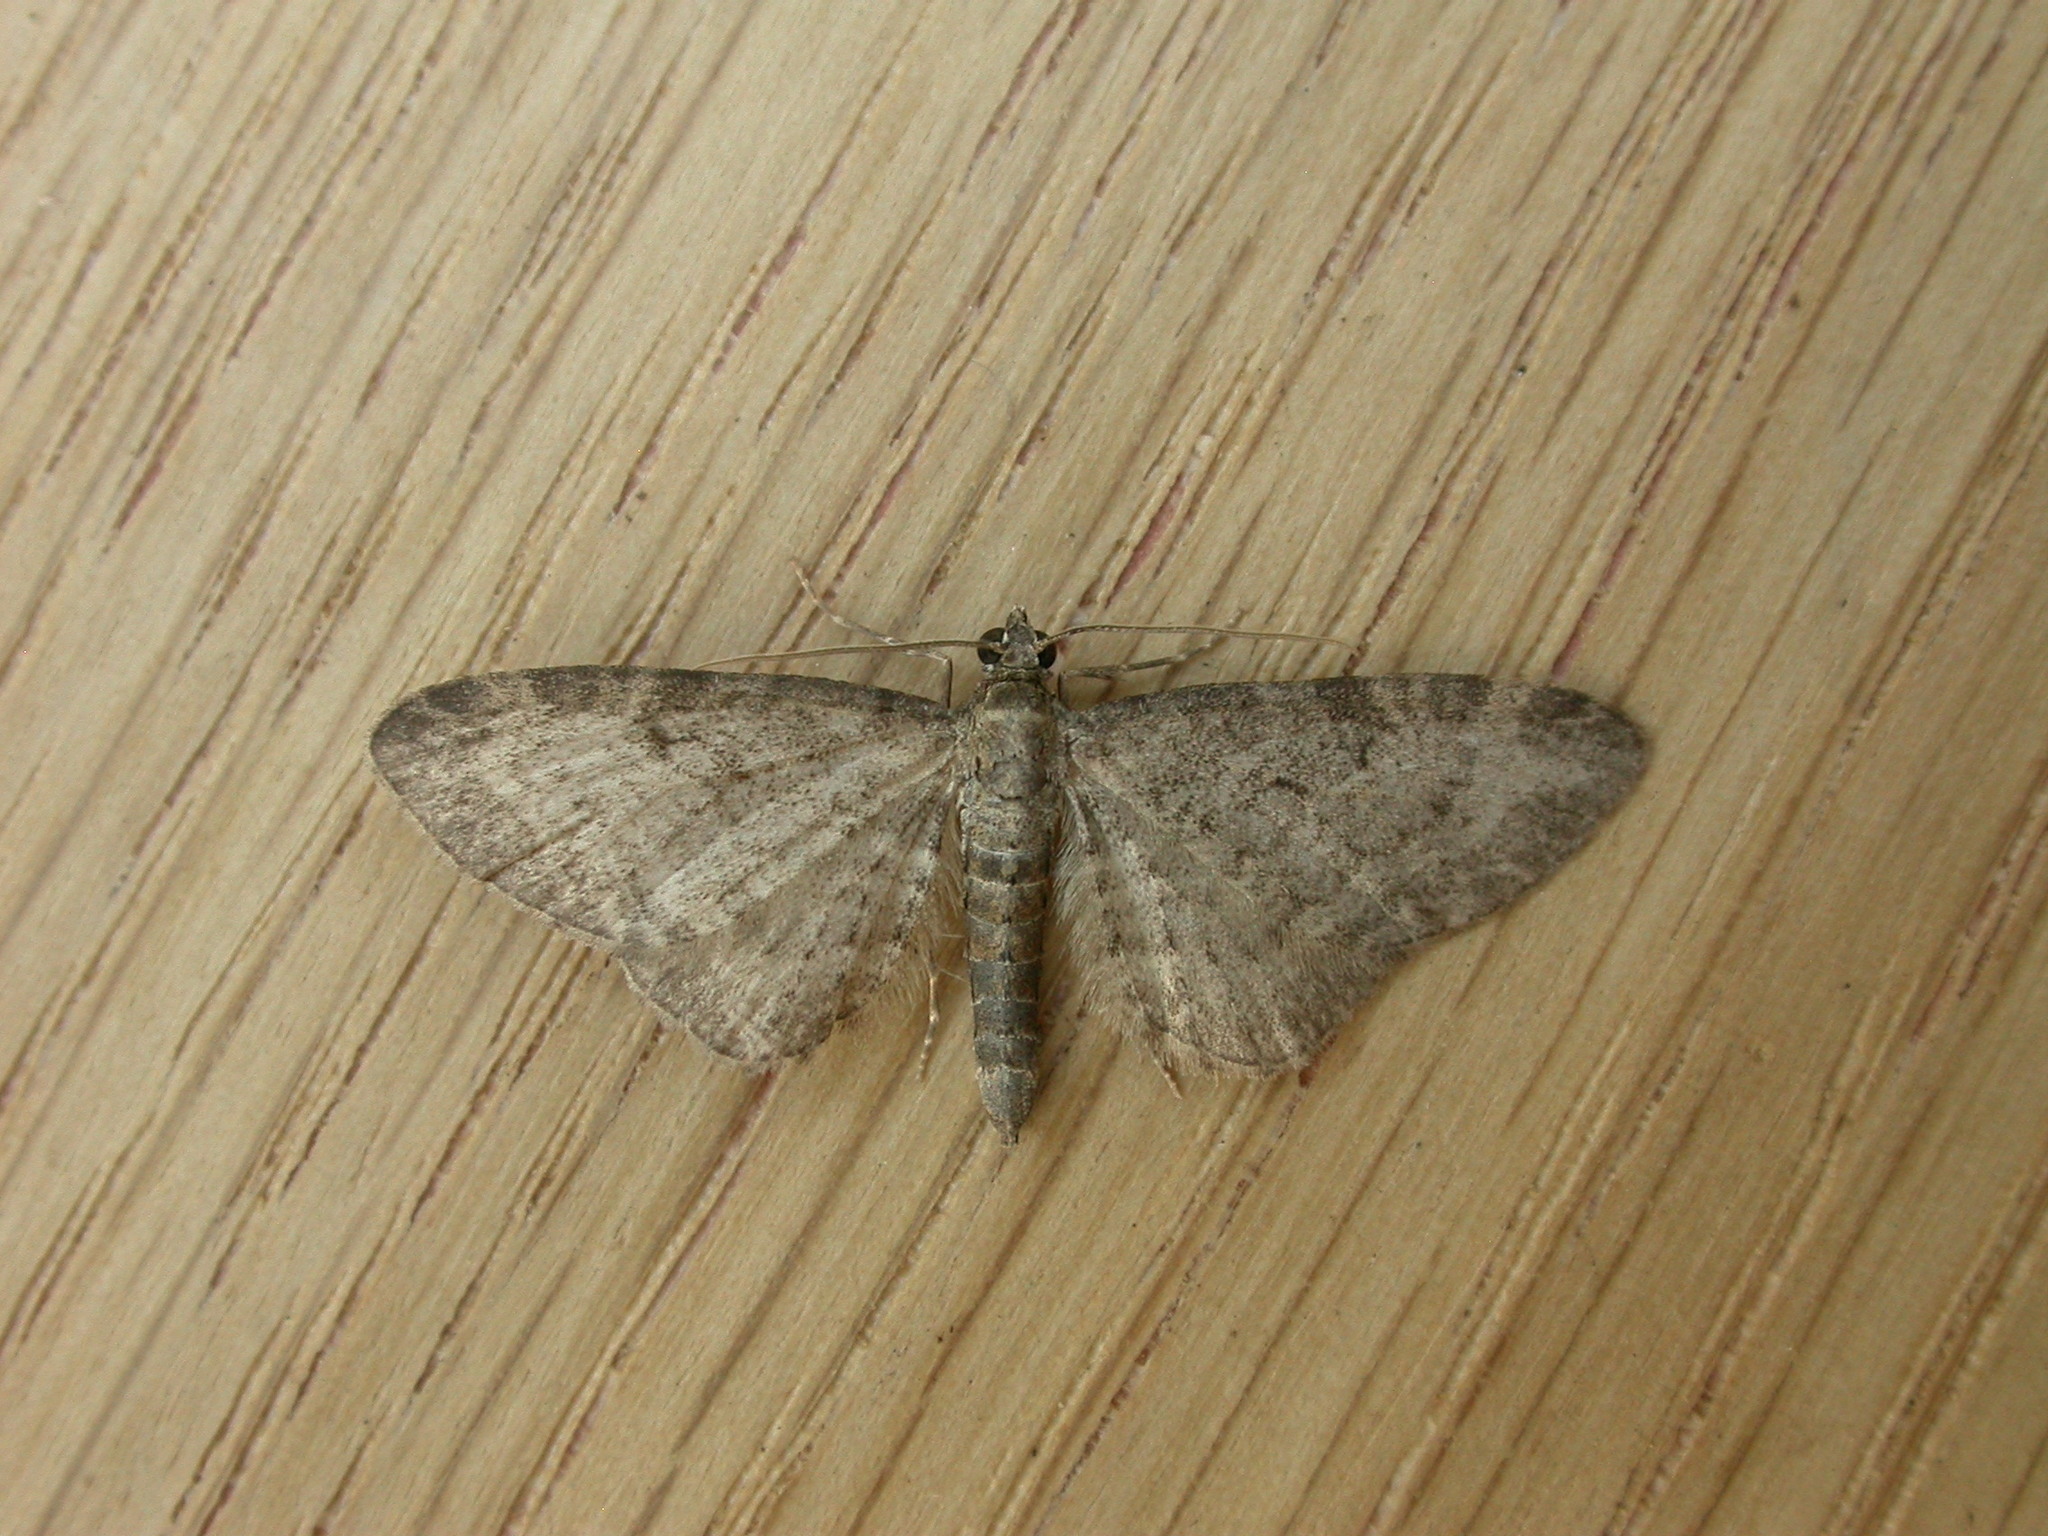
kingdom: Animalia
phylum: Arthropoda
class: Insecta
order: Lepidoptera
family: Geometridae
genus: Eupithecia
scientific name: Eupithecia subfuscata
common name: Grey pug
